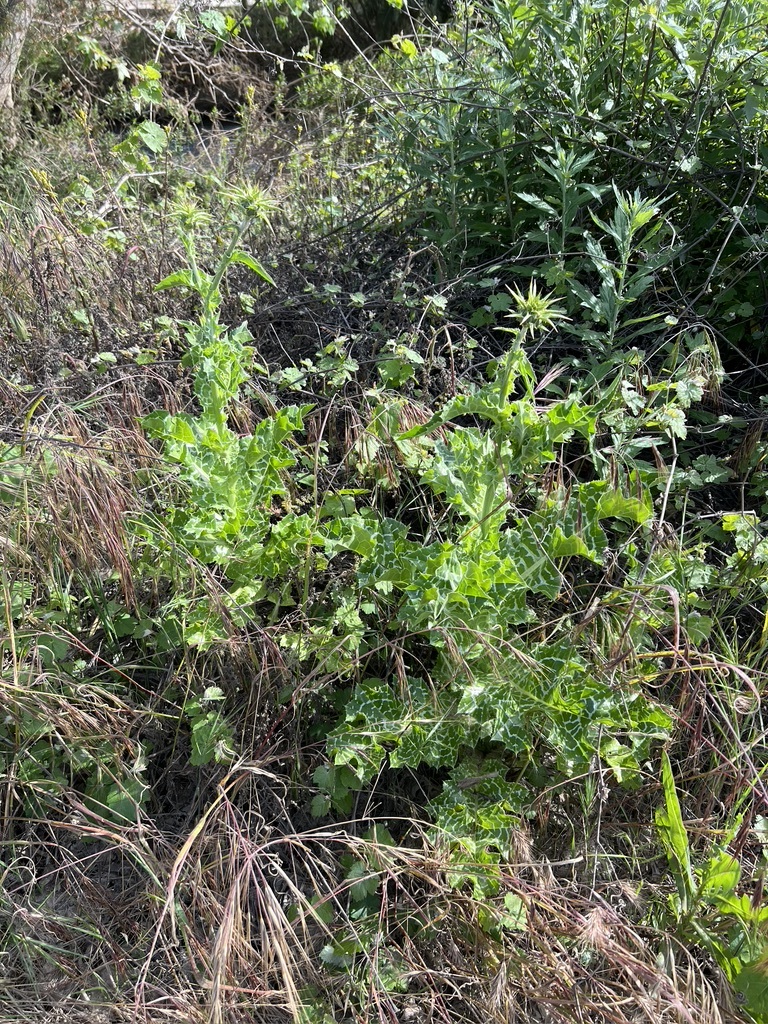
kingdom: Plantae
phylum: Tracheophyta
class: Magnoliopsida
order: Asterales
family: Asteraceae
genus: Silybum
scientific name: Silybum marianum
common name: Milk thistle
